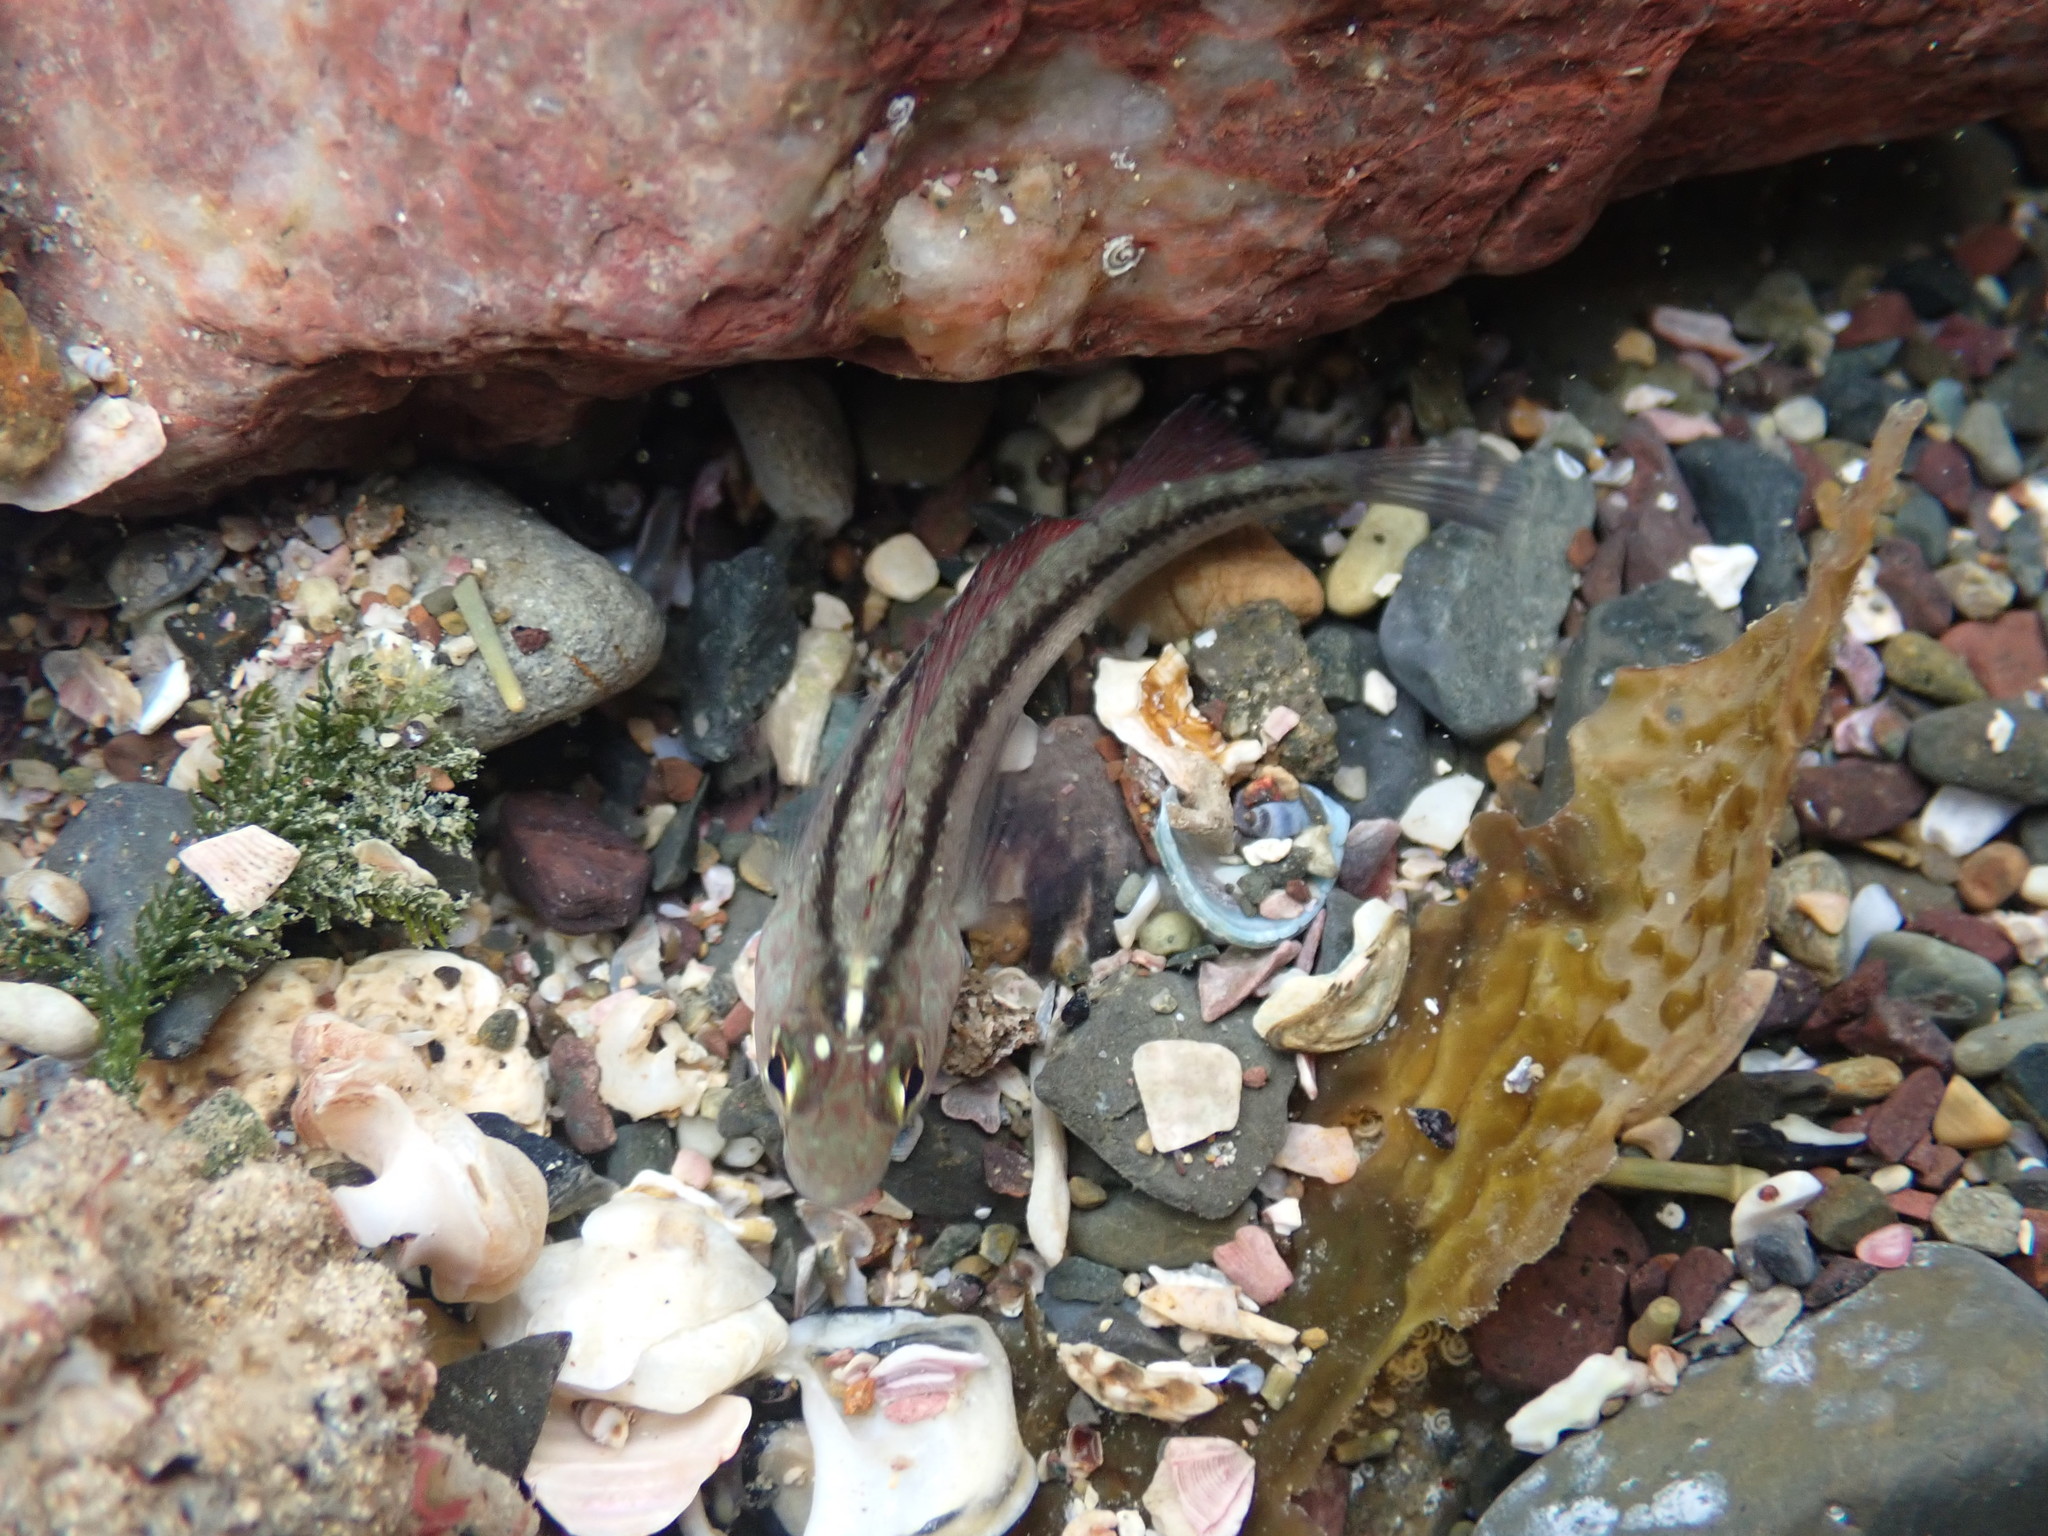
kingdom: Animalia
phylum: Chordata
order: Perciformes
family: Tripterygiidae
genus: Forsterygion
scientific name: Forsterygion lapillum
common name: Common triplefin
